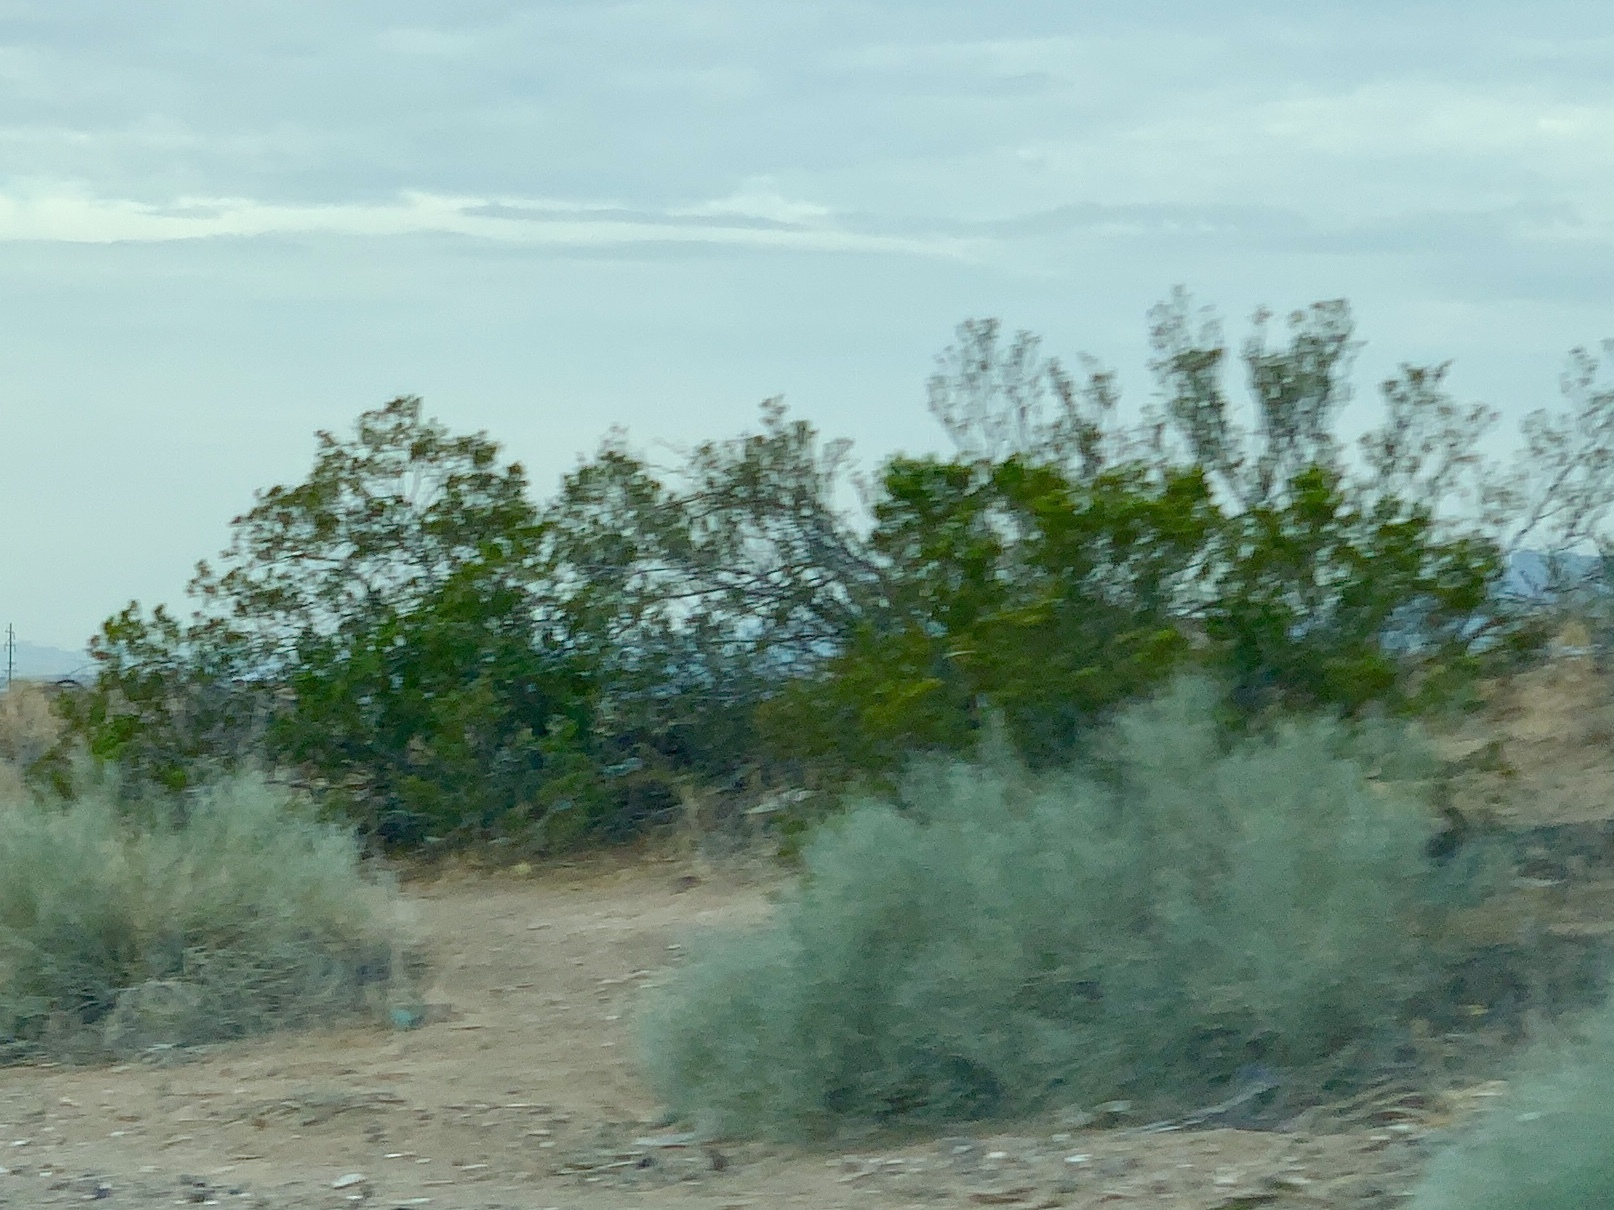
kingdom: Plantae
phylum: Tracheophyta
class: Magnoliopsida
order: Zygophyllales
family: Zygophyllaceae
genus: Larrea
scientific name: Larrea tridentata
